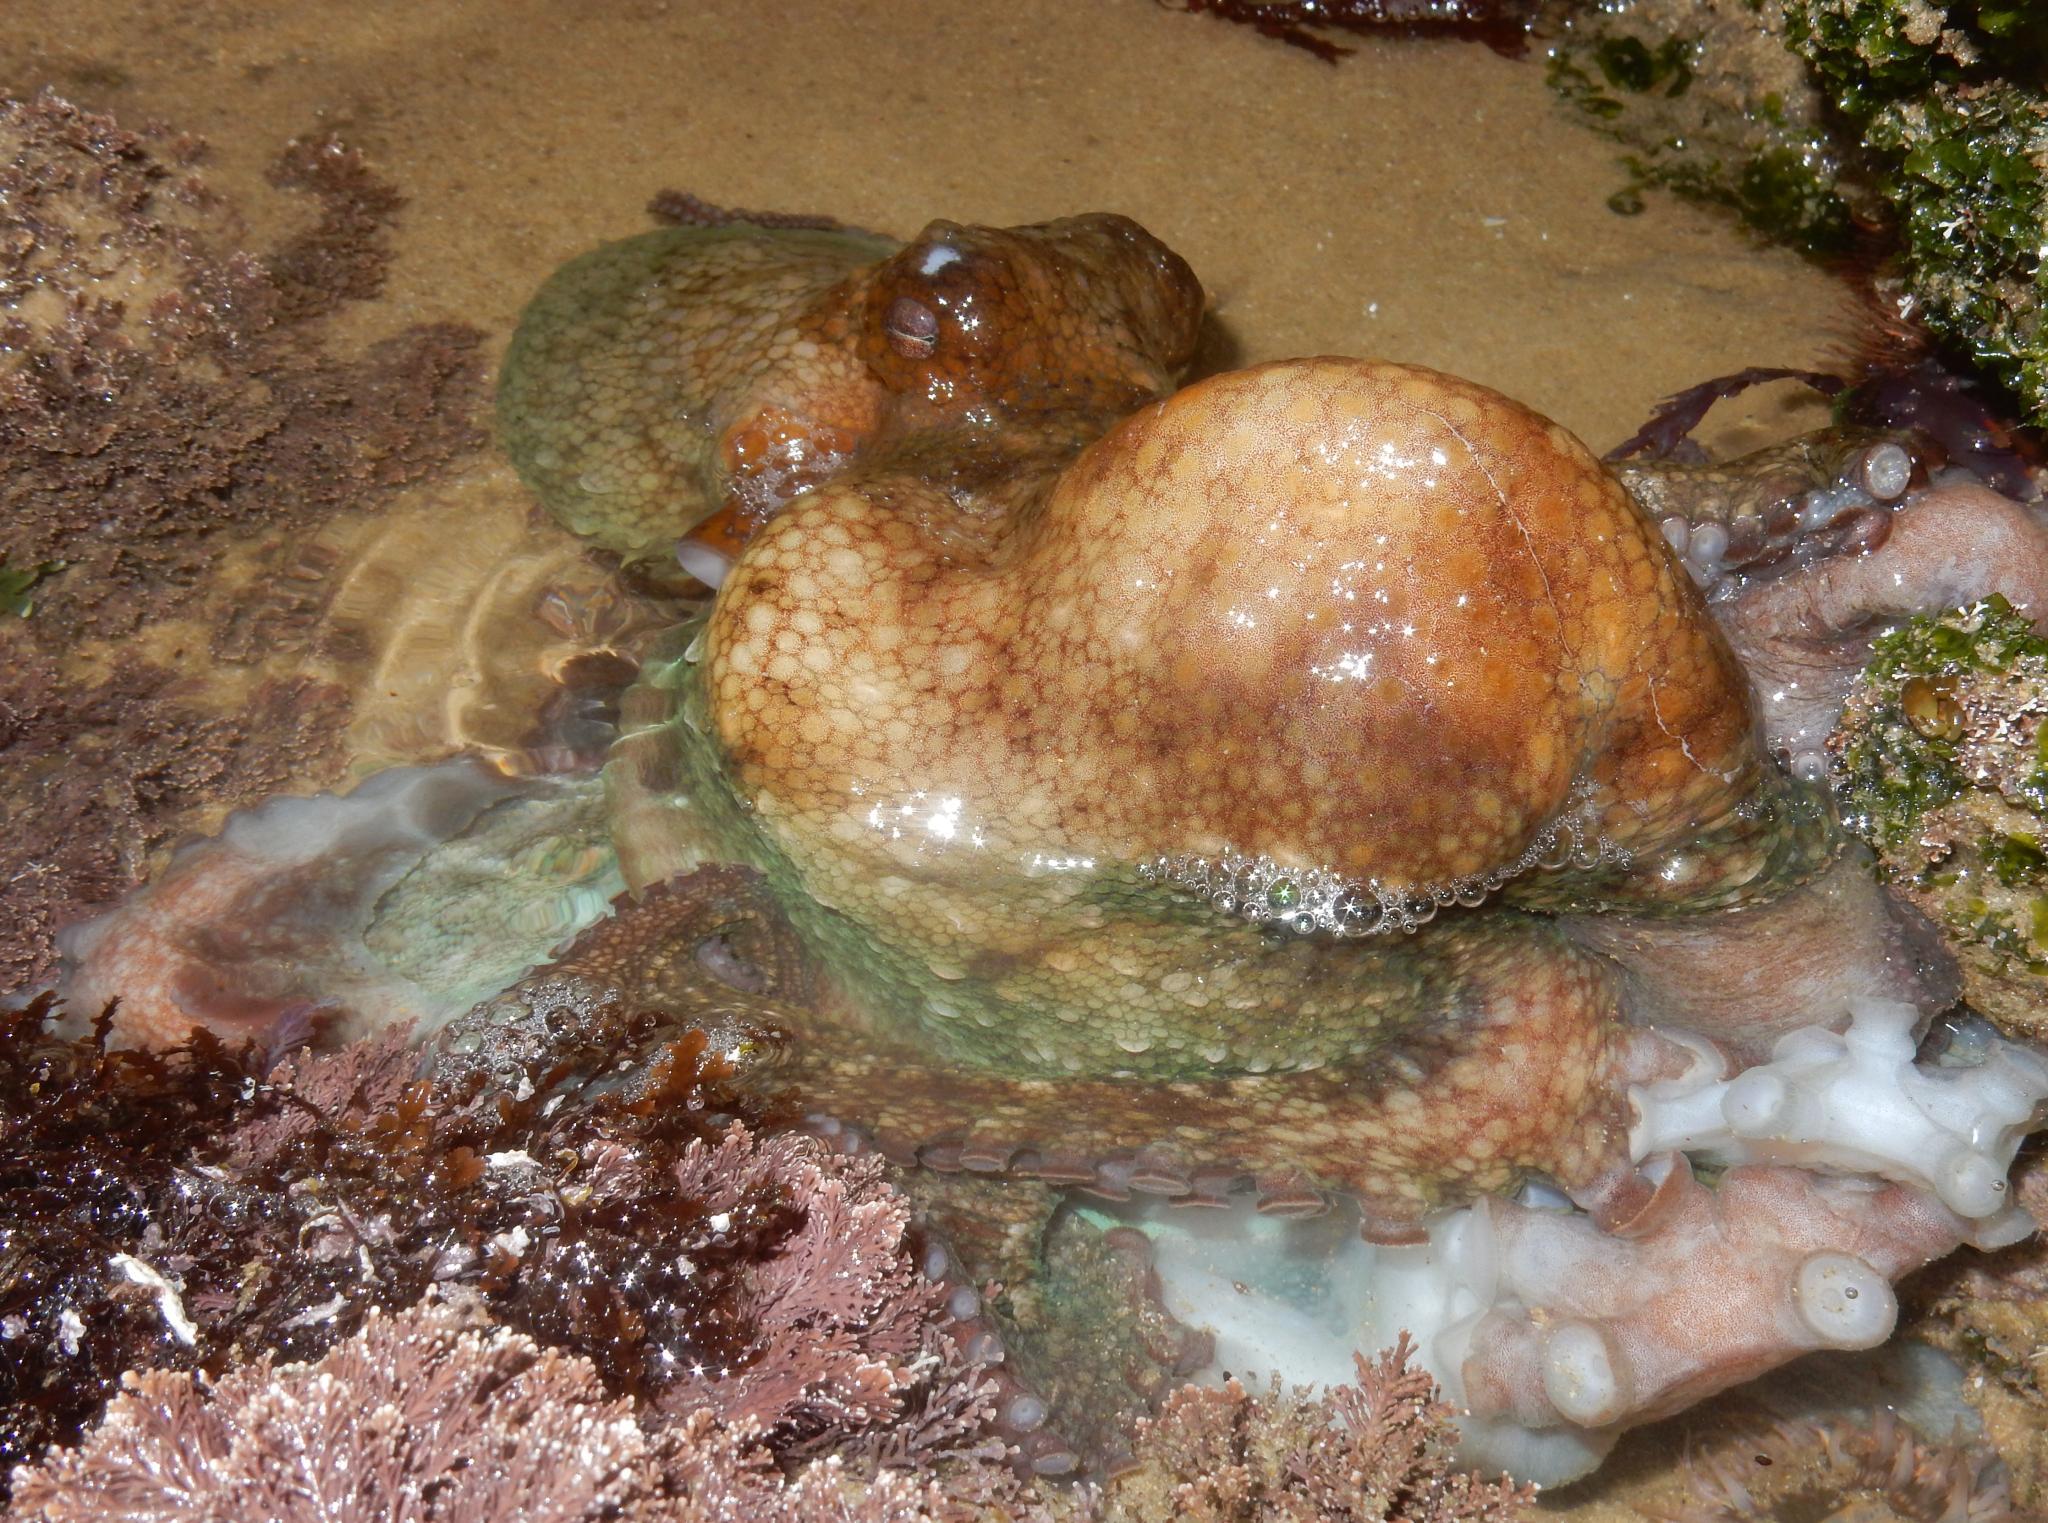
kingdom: Animalia
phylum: Mollusca
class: Cephalopoda
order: Octopoda
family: Octopodidae
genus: Octopus
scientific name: Octopus vulgaris
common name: Common octopus
